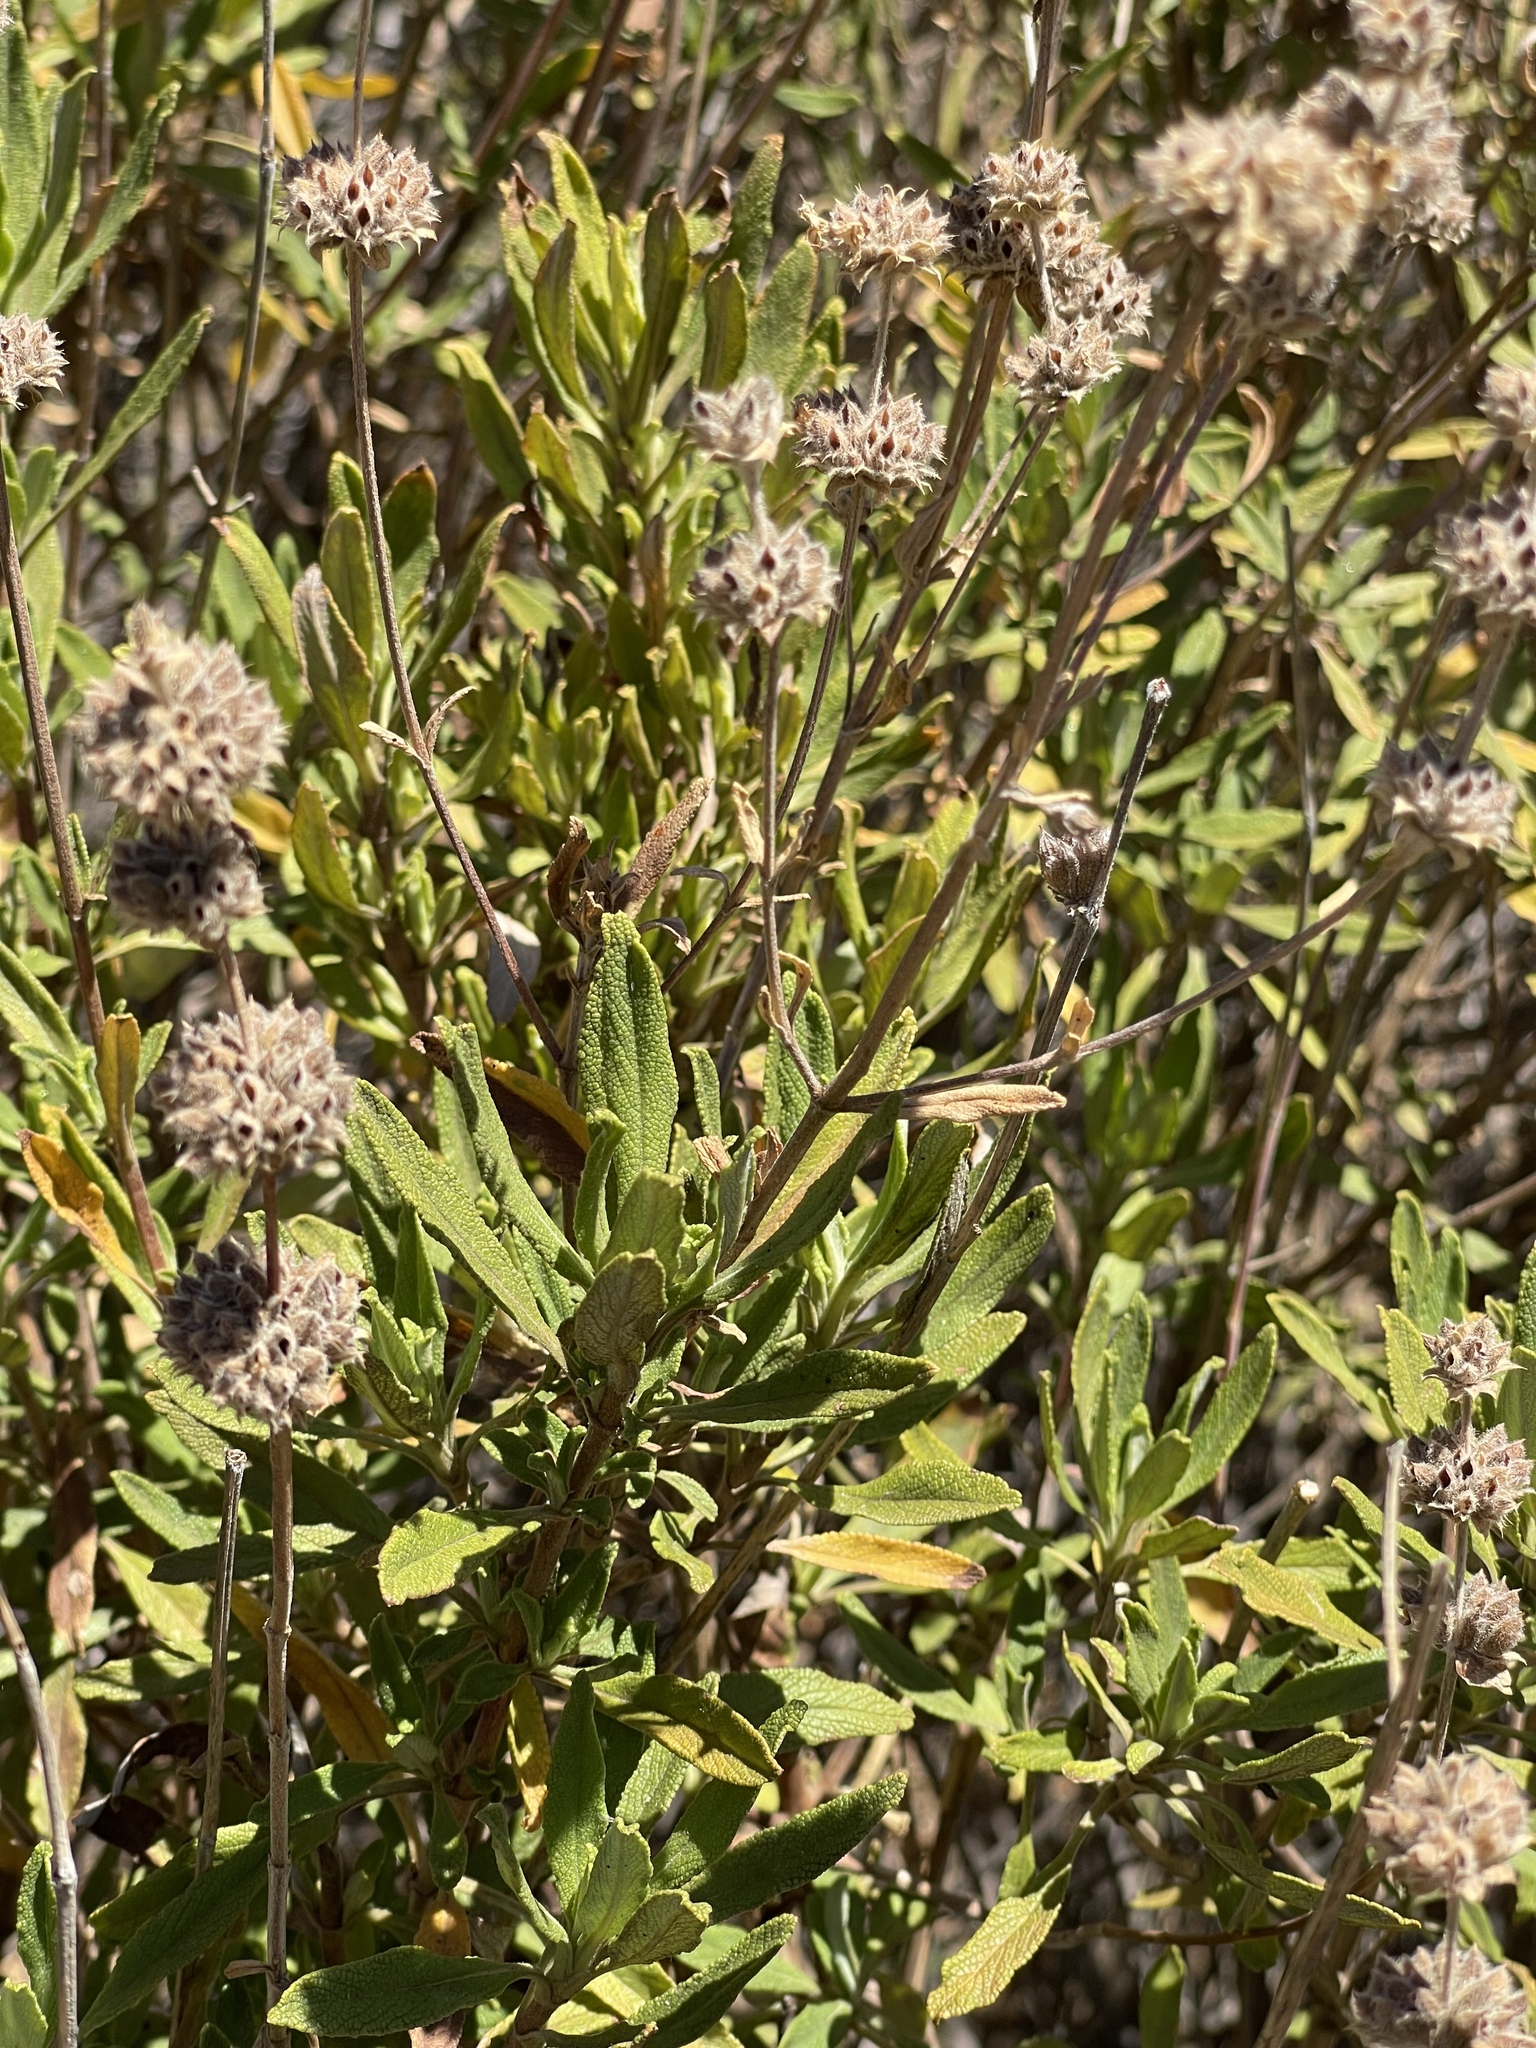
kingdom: Plantae
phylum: Tracheophyta
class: Magnoliopsida
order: Lamiales
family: Lamiaceae
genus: Salvia
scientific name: Salvia mellifera
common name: Black sage
